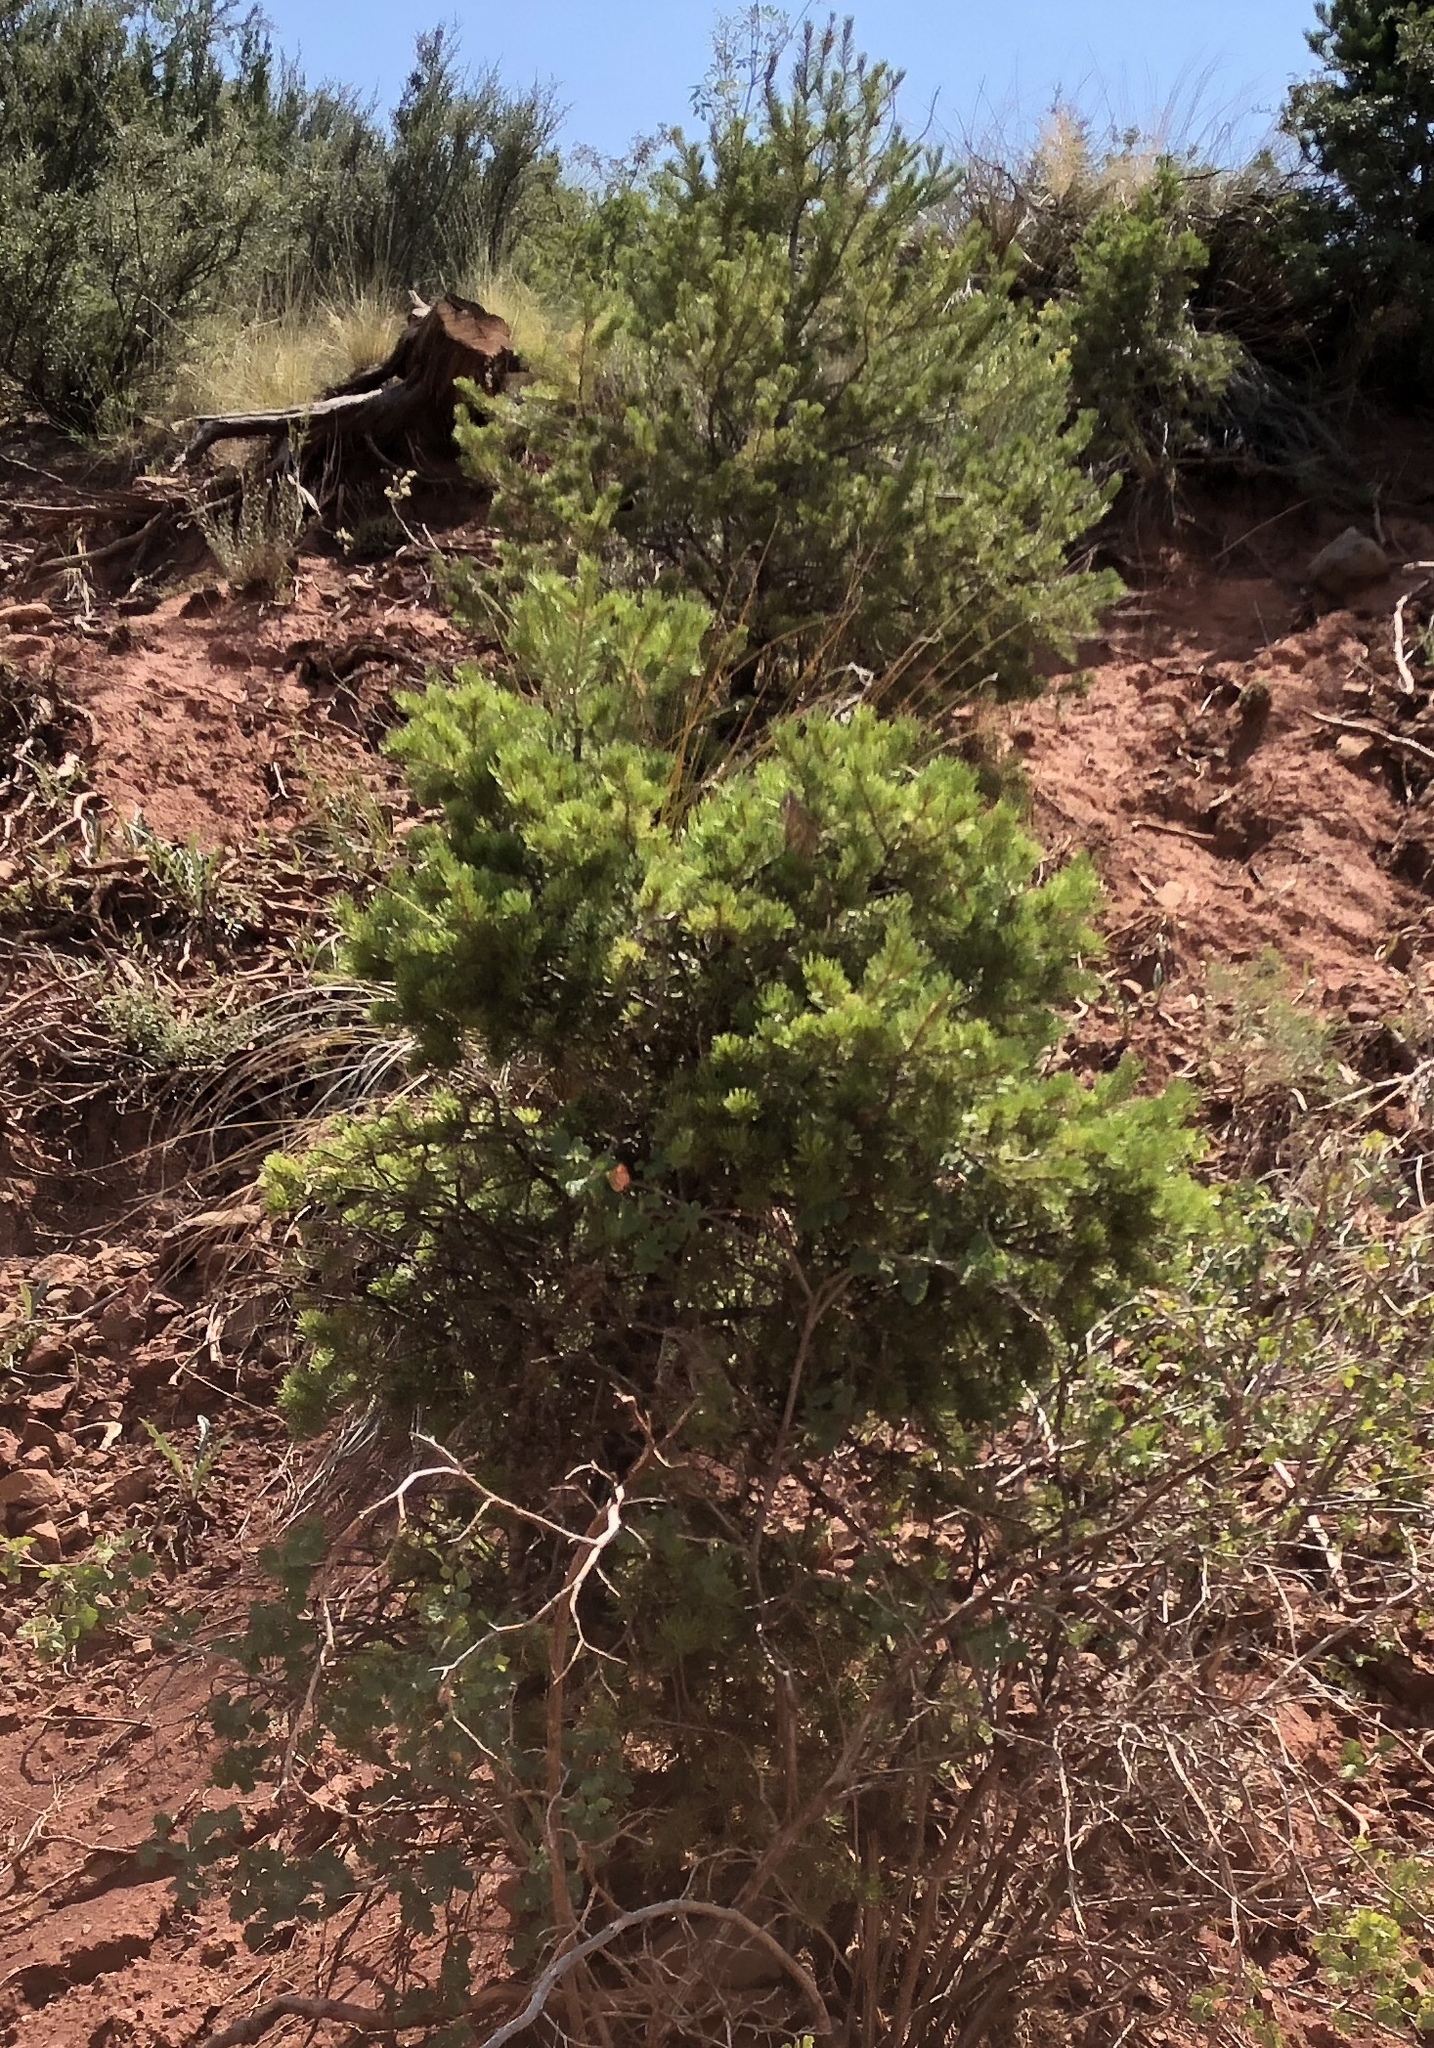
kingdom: Plantae
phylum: Tracheophyta
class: Pinopsida
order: Pinales
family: Pinaceae
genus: Pinus
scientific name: Pinus edulis
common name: Colorado pinyon
